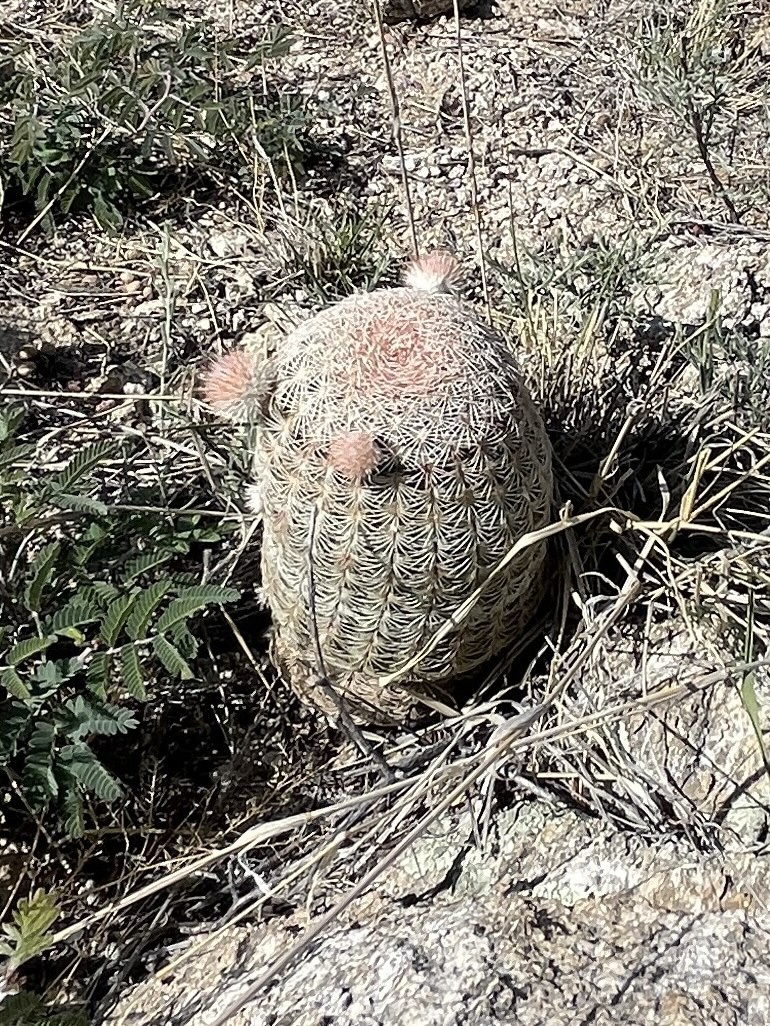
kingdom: Plantae
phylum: Tracheophyta
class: Magnoliopsida
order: Caryophyllales
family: Cactaceae
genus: Echinocereus
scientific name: Echinocereus rigidissimus
